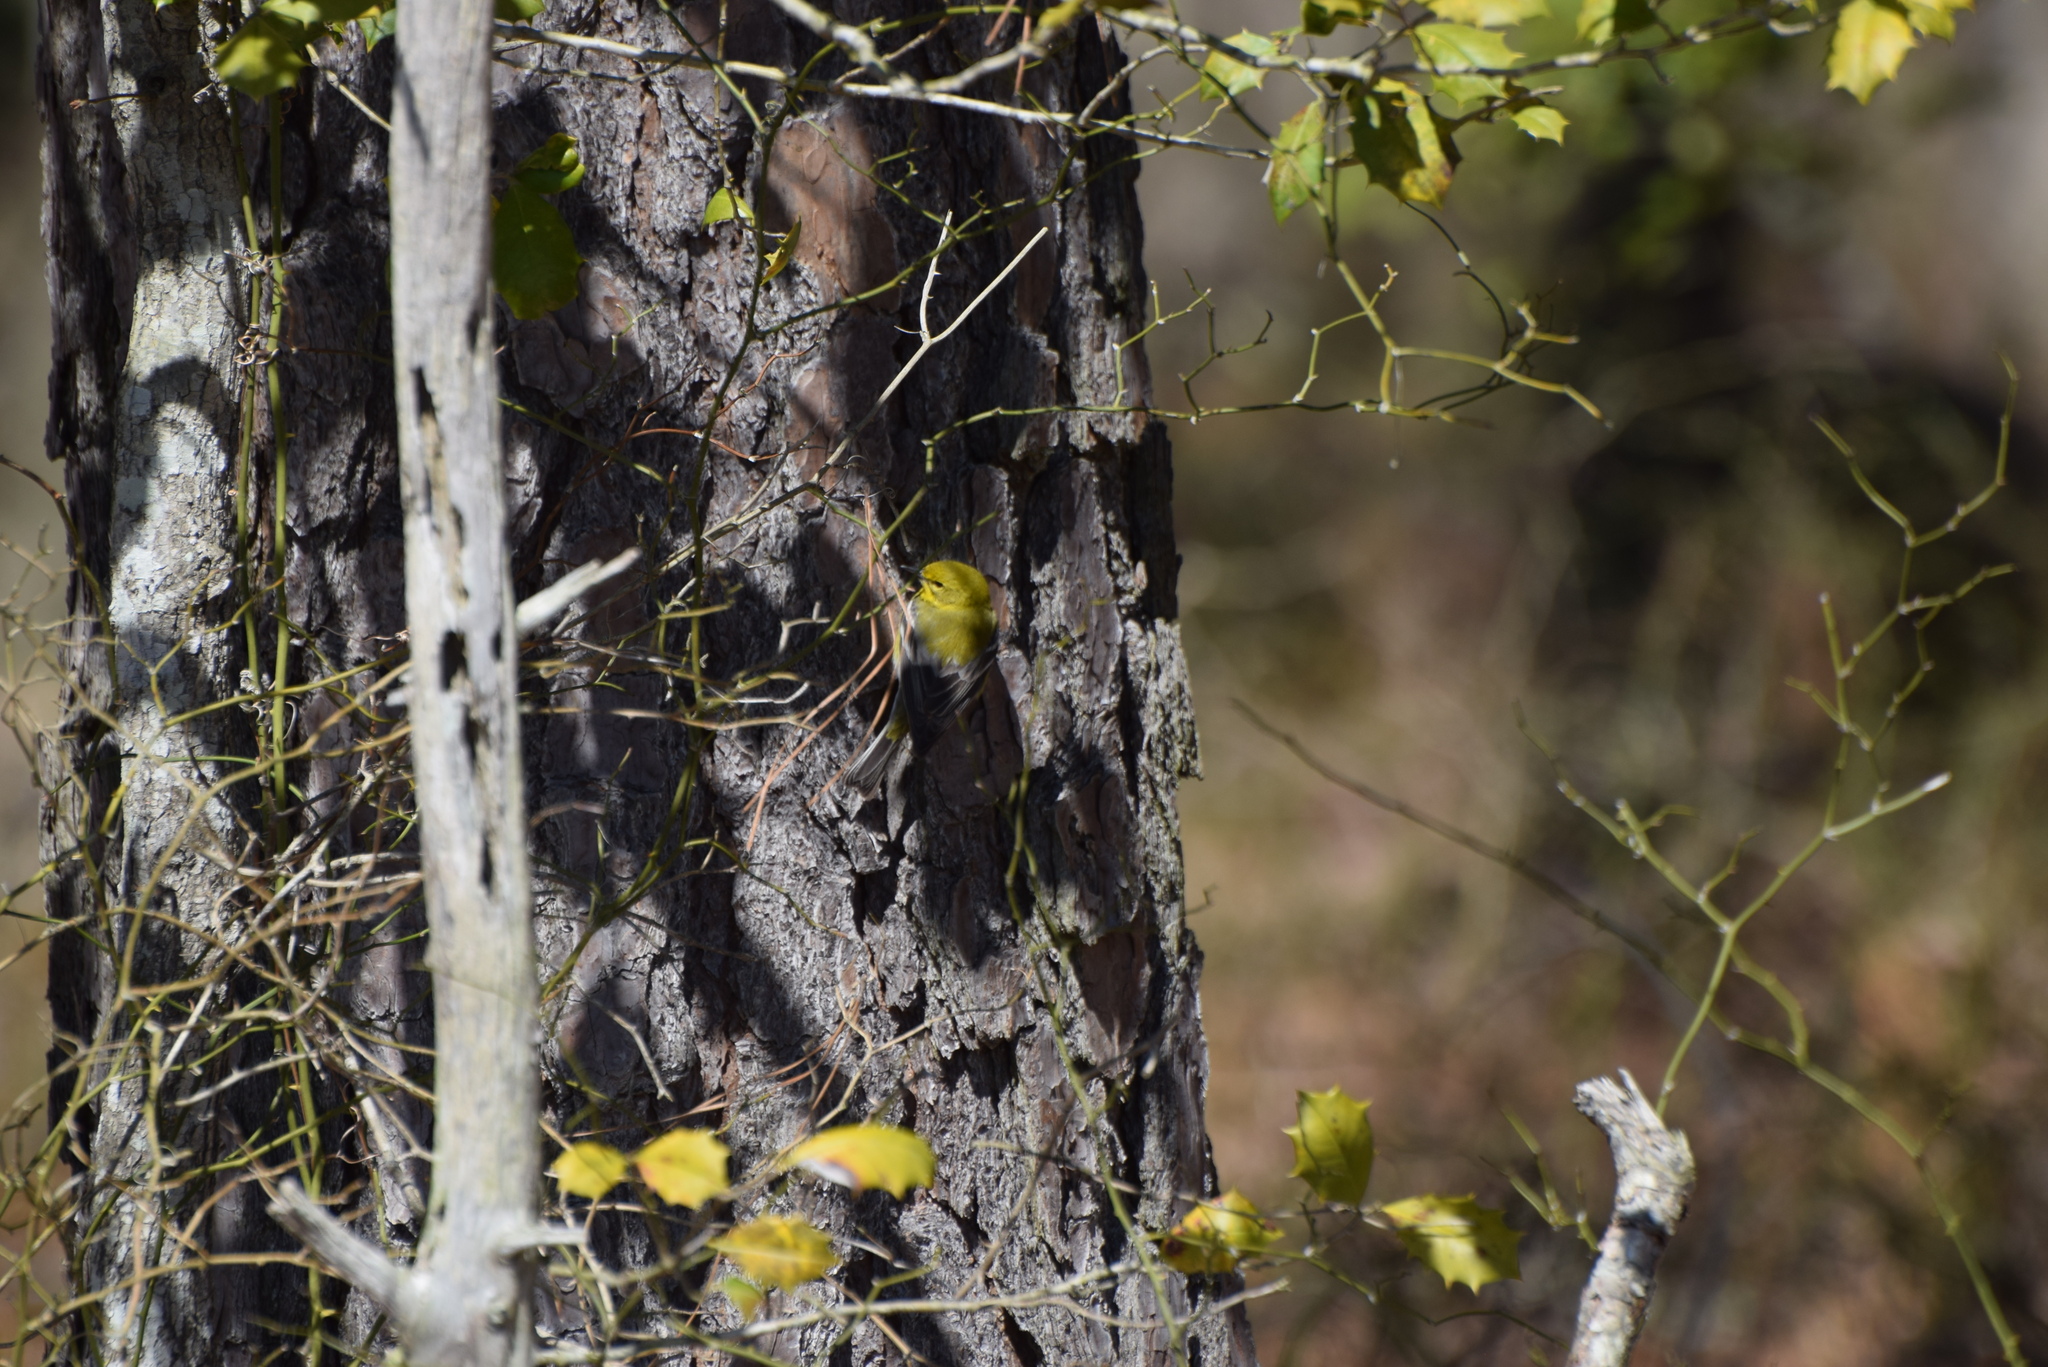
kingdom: Animalia
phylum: Chordata
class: Aves
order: Passeriformes
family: Parulidae
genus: Setophaga
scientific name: Setophaga pinus
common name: Pine warbler
